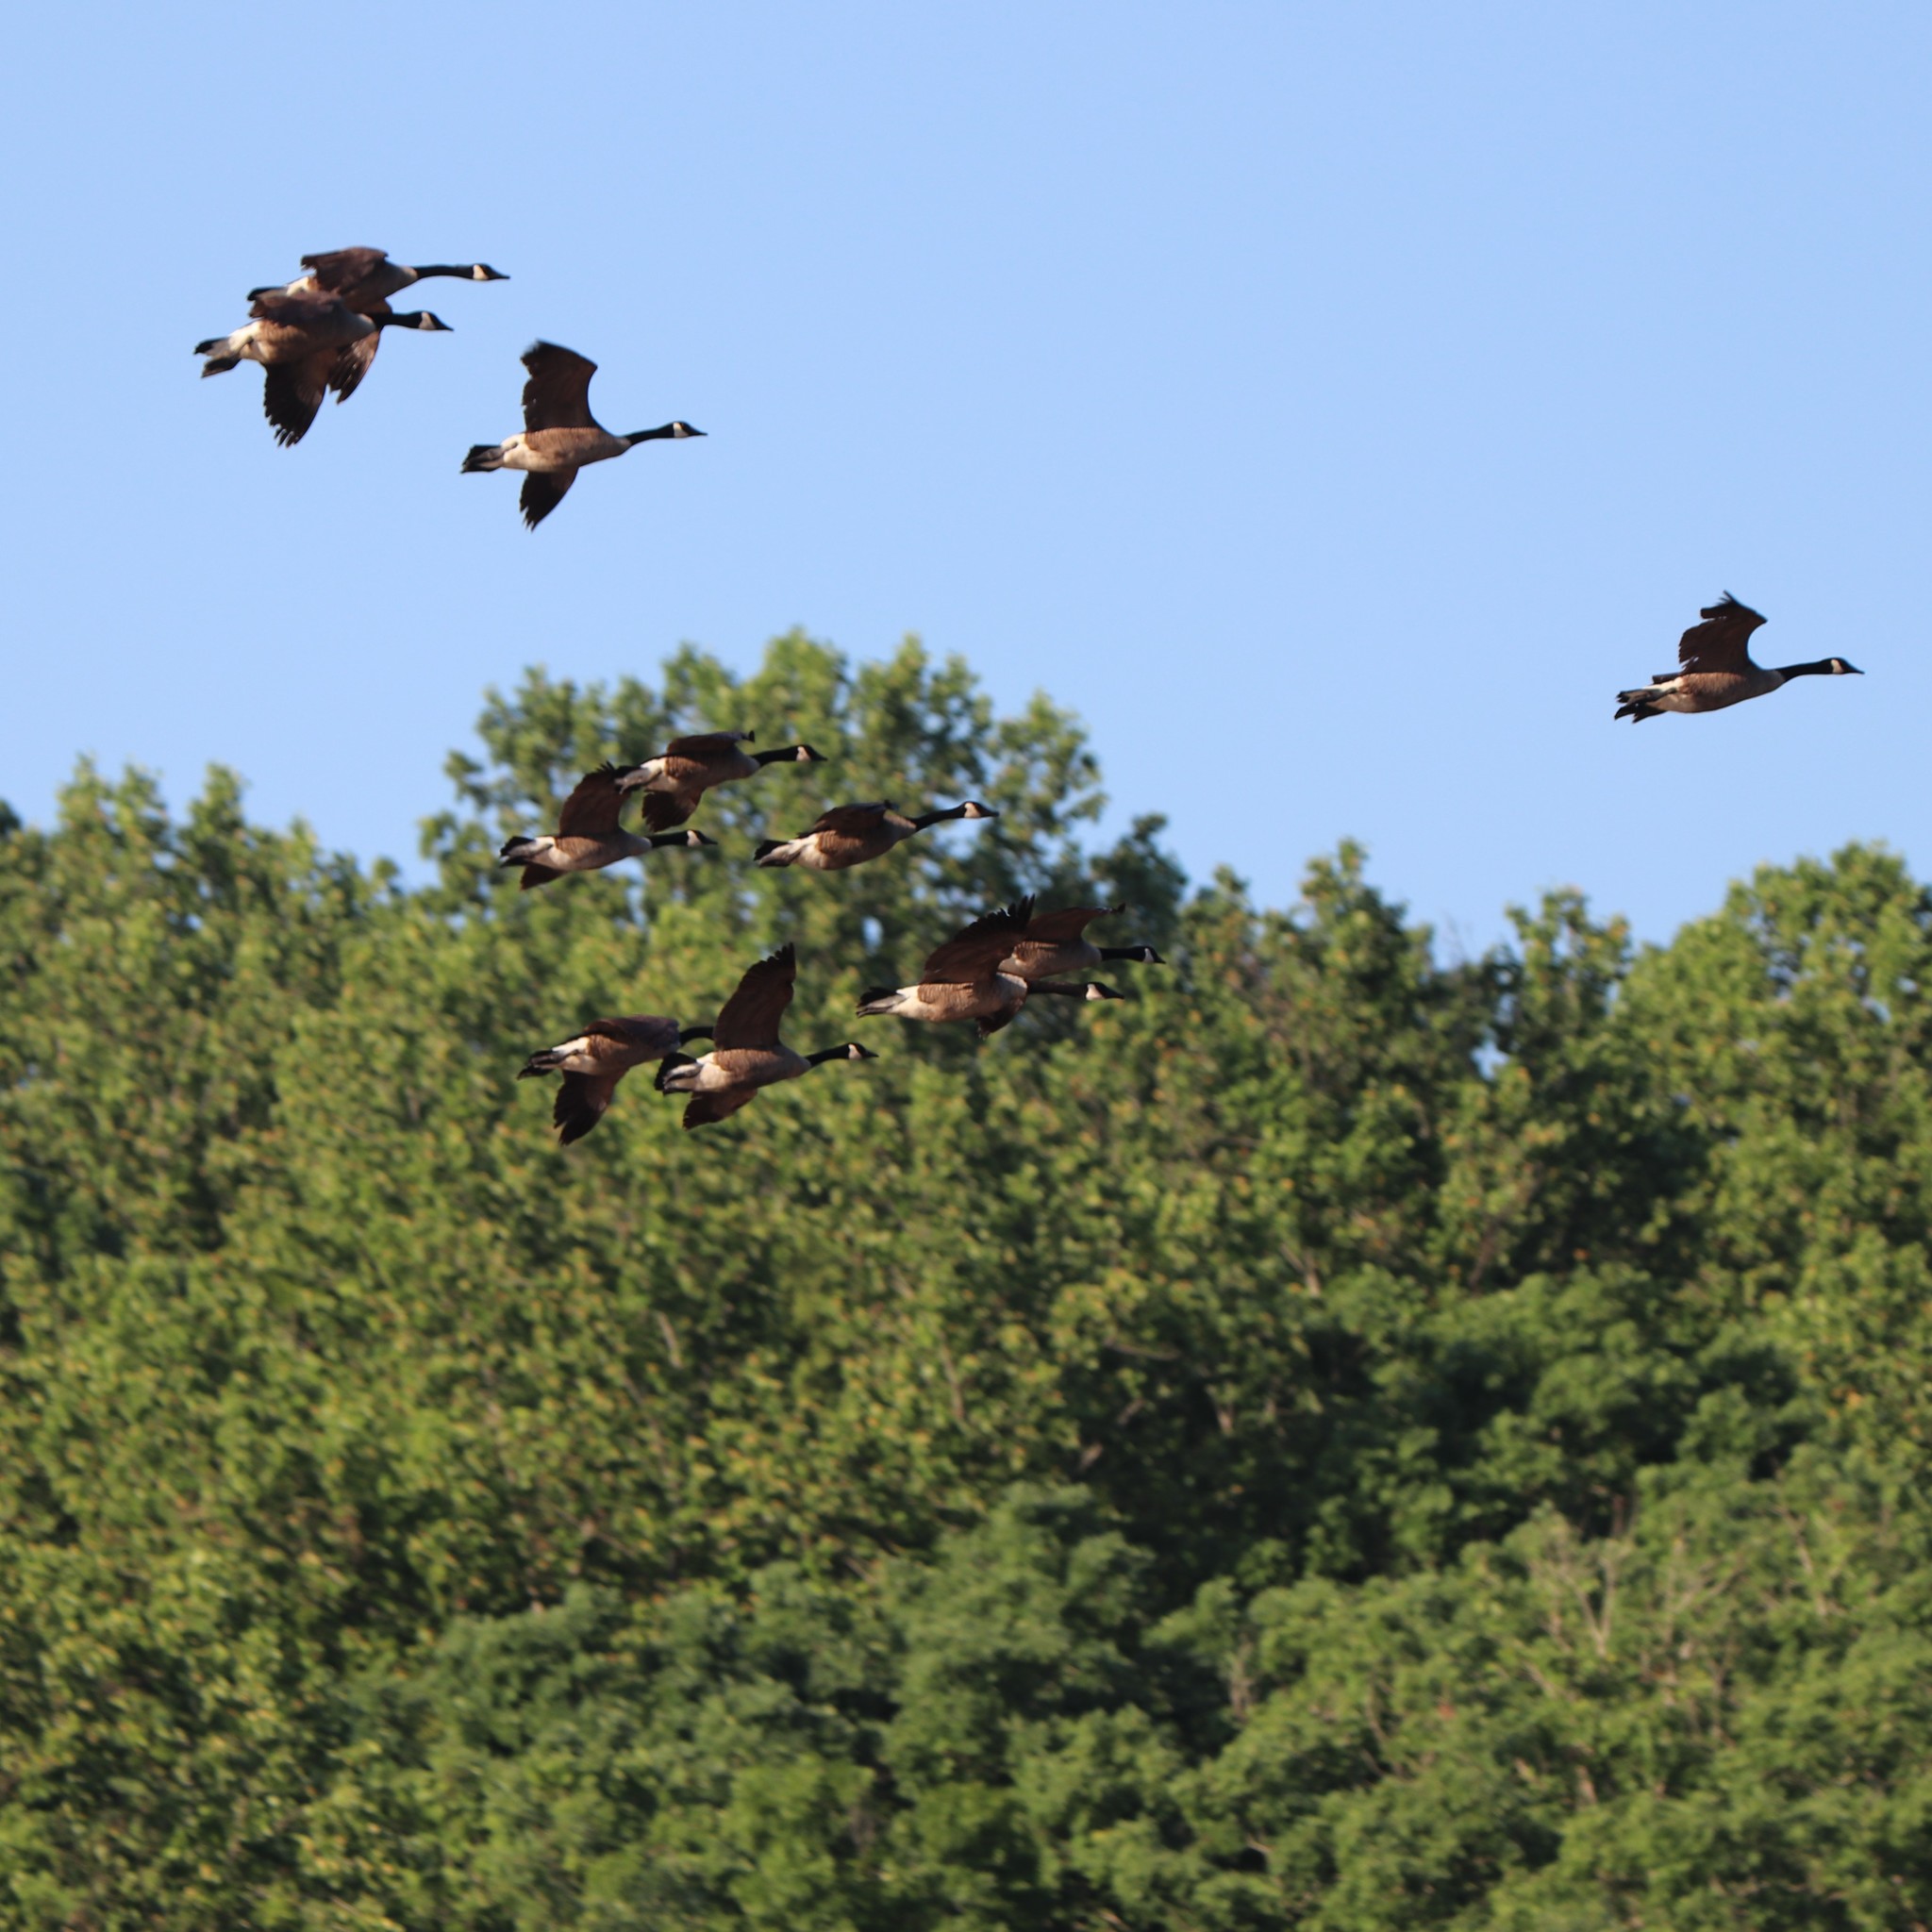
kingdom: Animalia
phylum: Chordata
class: Aves
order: Anseriformes
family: Anatidae
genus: Branta
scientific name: Branta canadensis
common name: Canada goose
